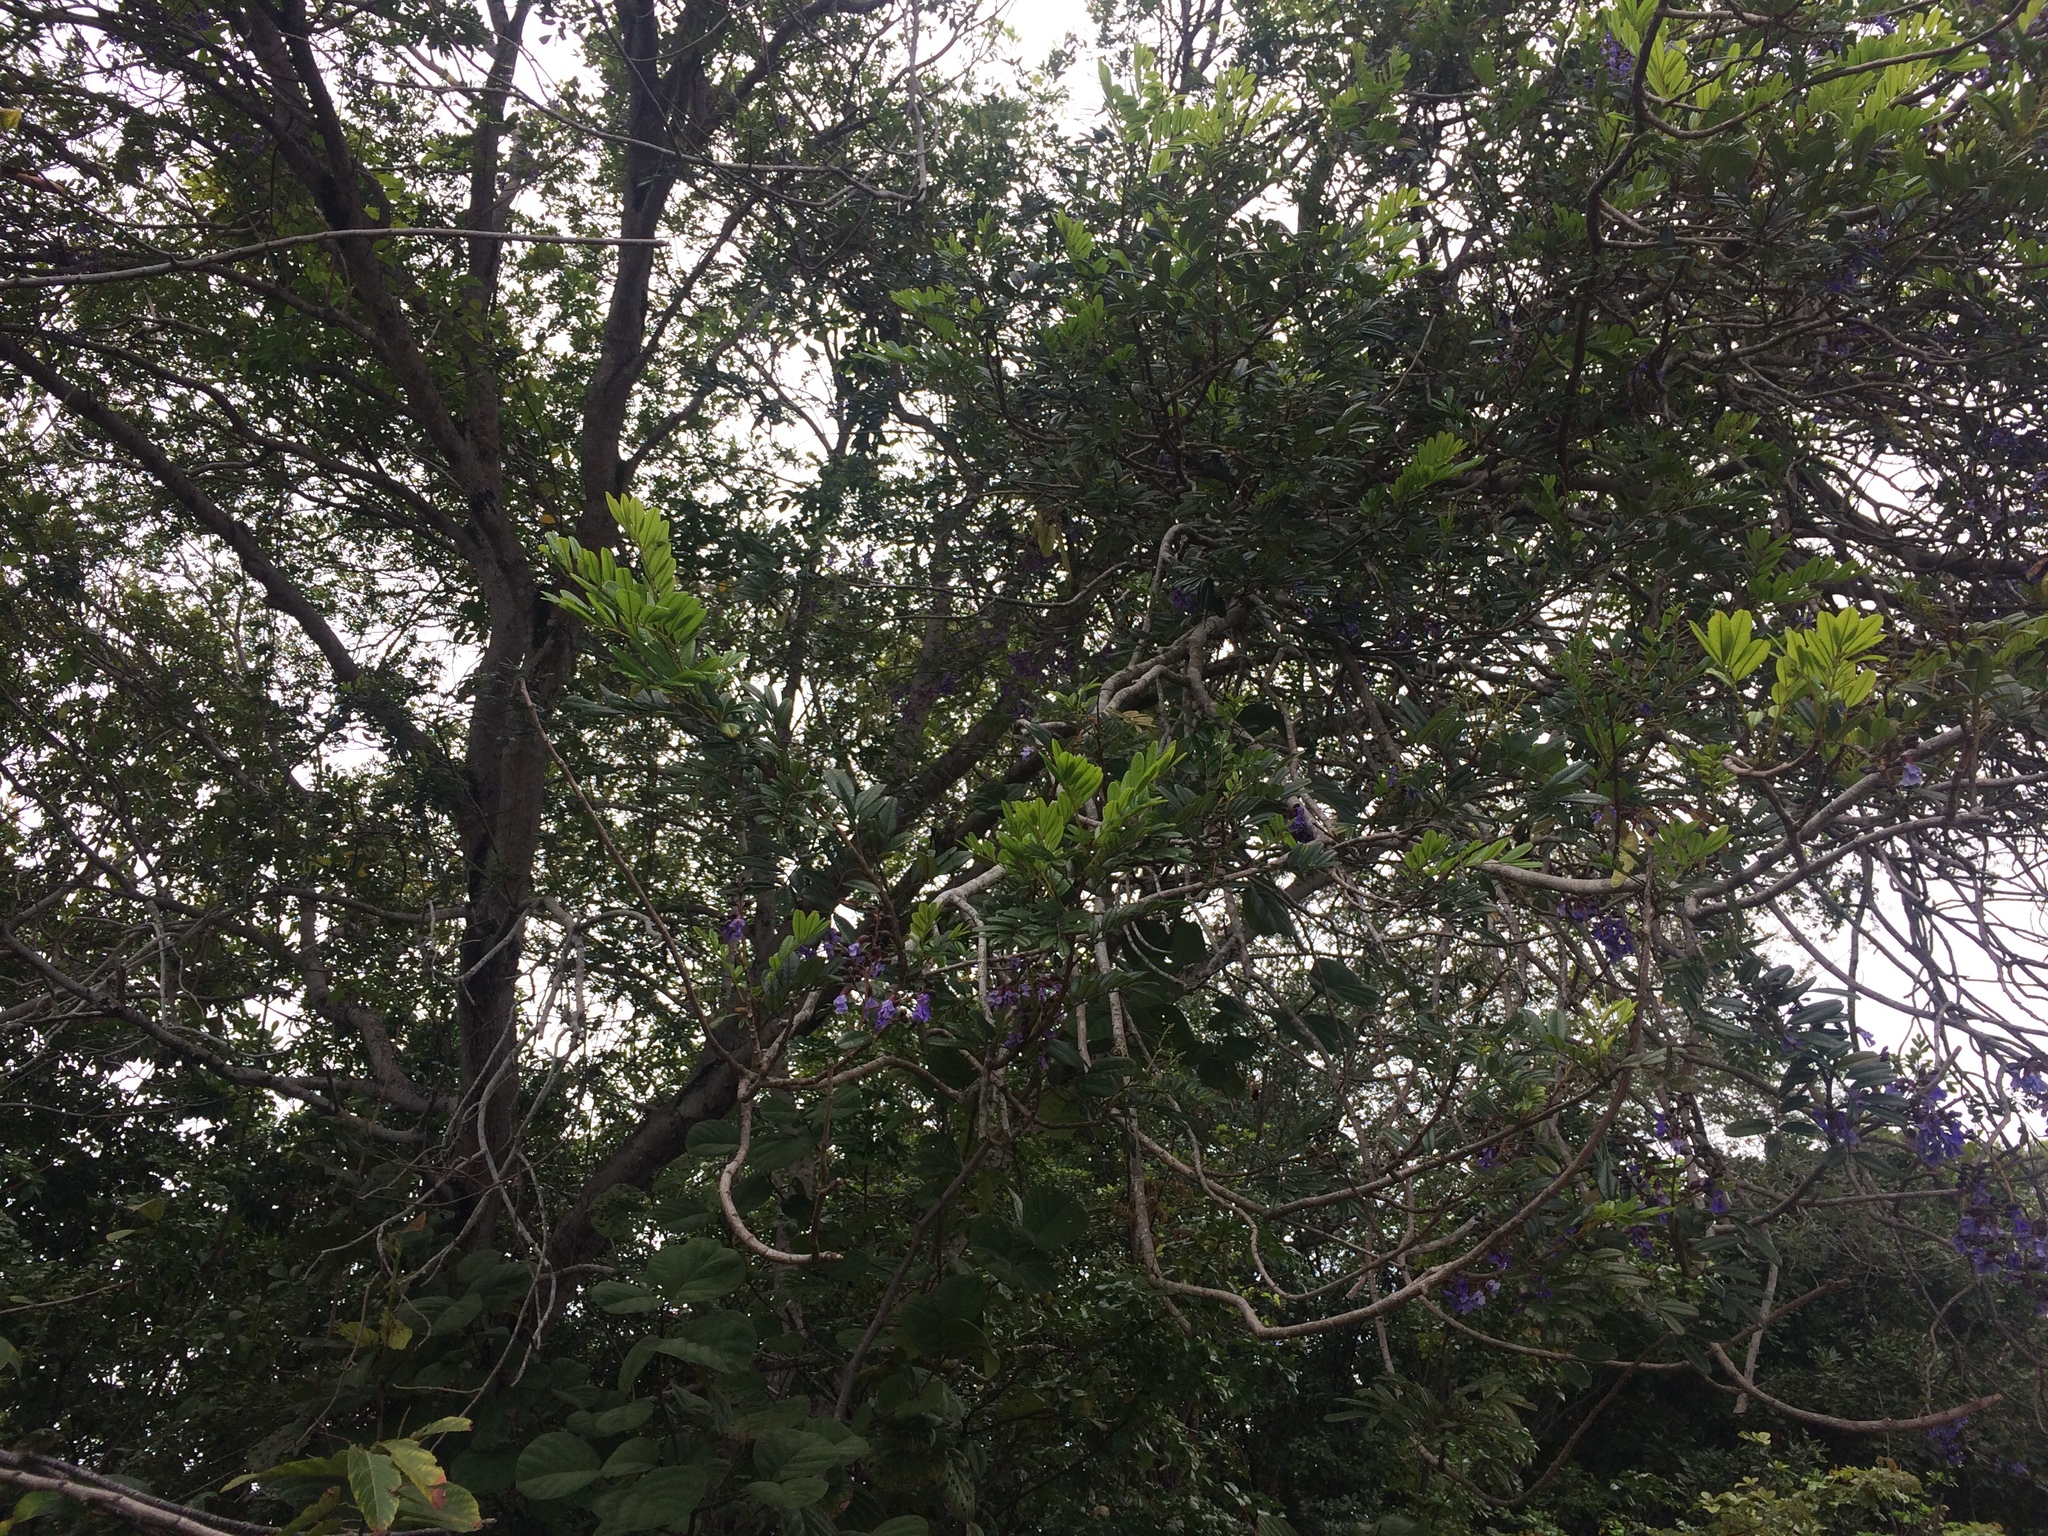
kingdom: Plantae
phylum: Tracheophyta
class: Magnoliopsida
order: Fabales
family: Fabaceae
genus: Bowdichia
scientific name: Bowdichia virgilioides
